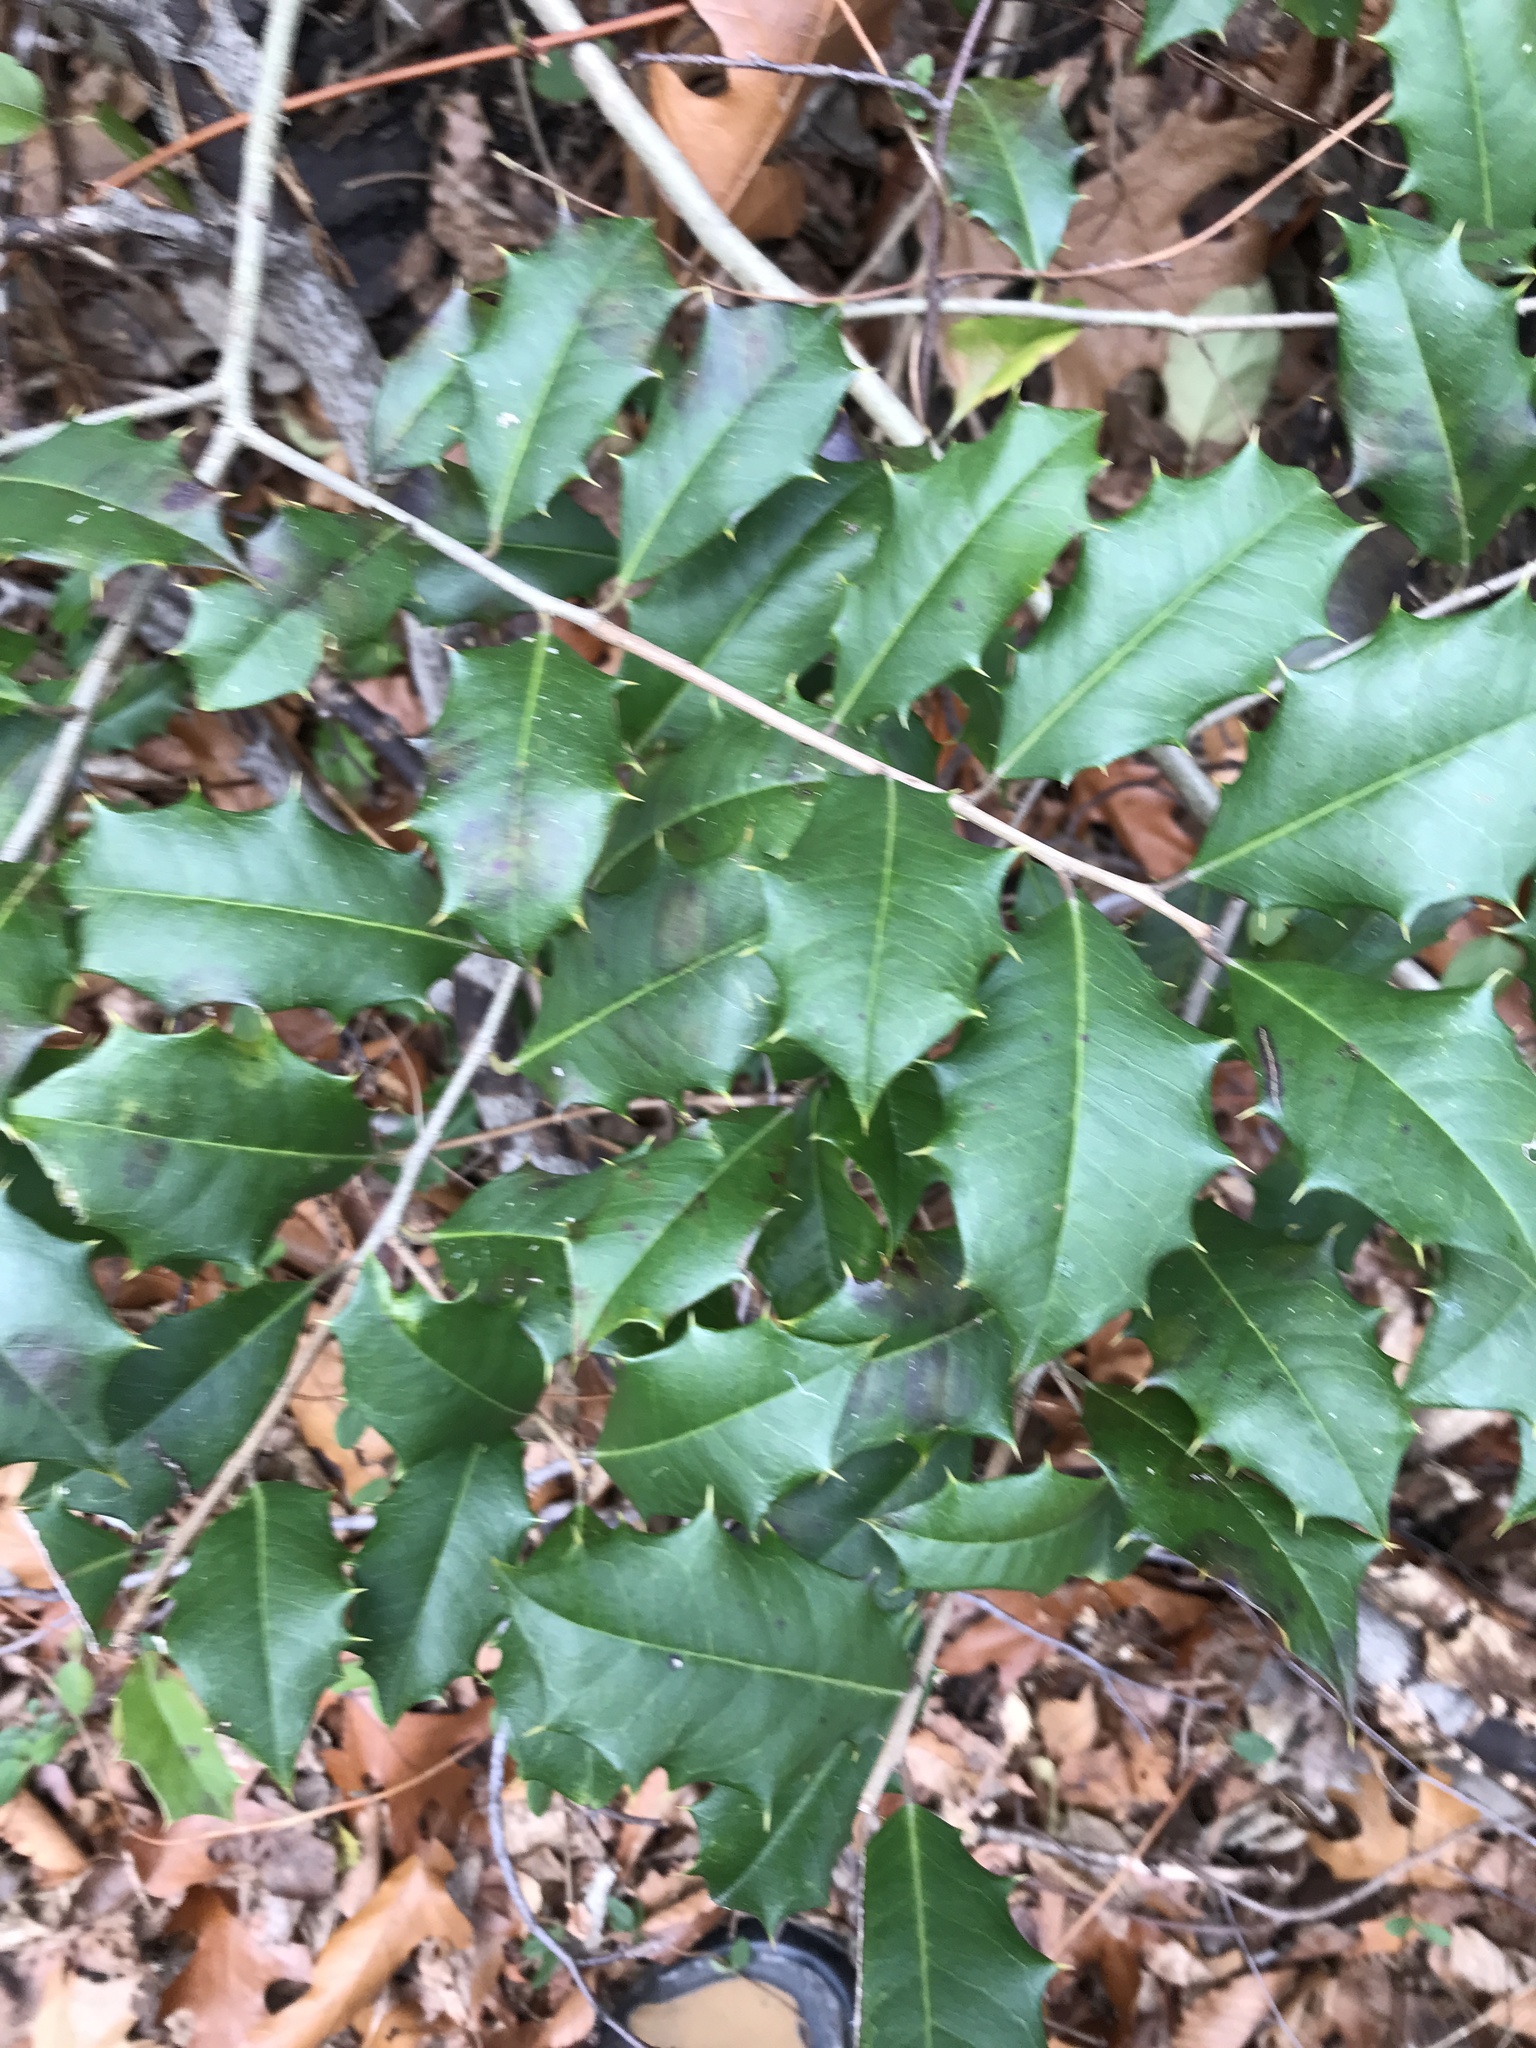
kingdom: Plantae
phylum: Tracheophyta
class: Magnoliopsida
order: Aquifoliales
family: Aquifoliaceae
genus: Ilex
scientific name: Ilex opaca
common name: American holly
